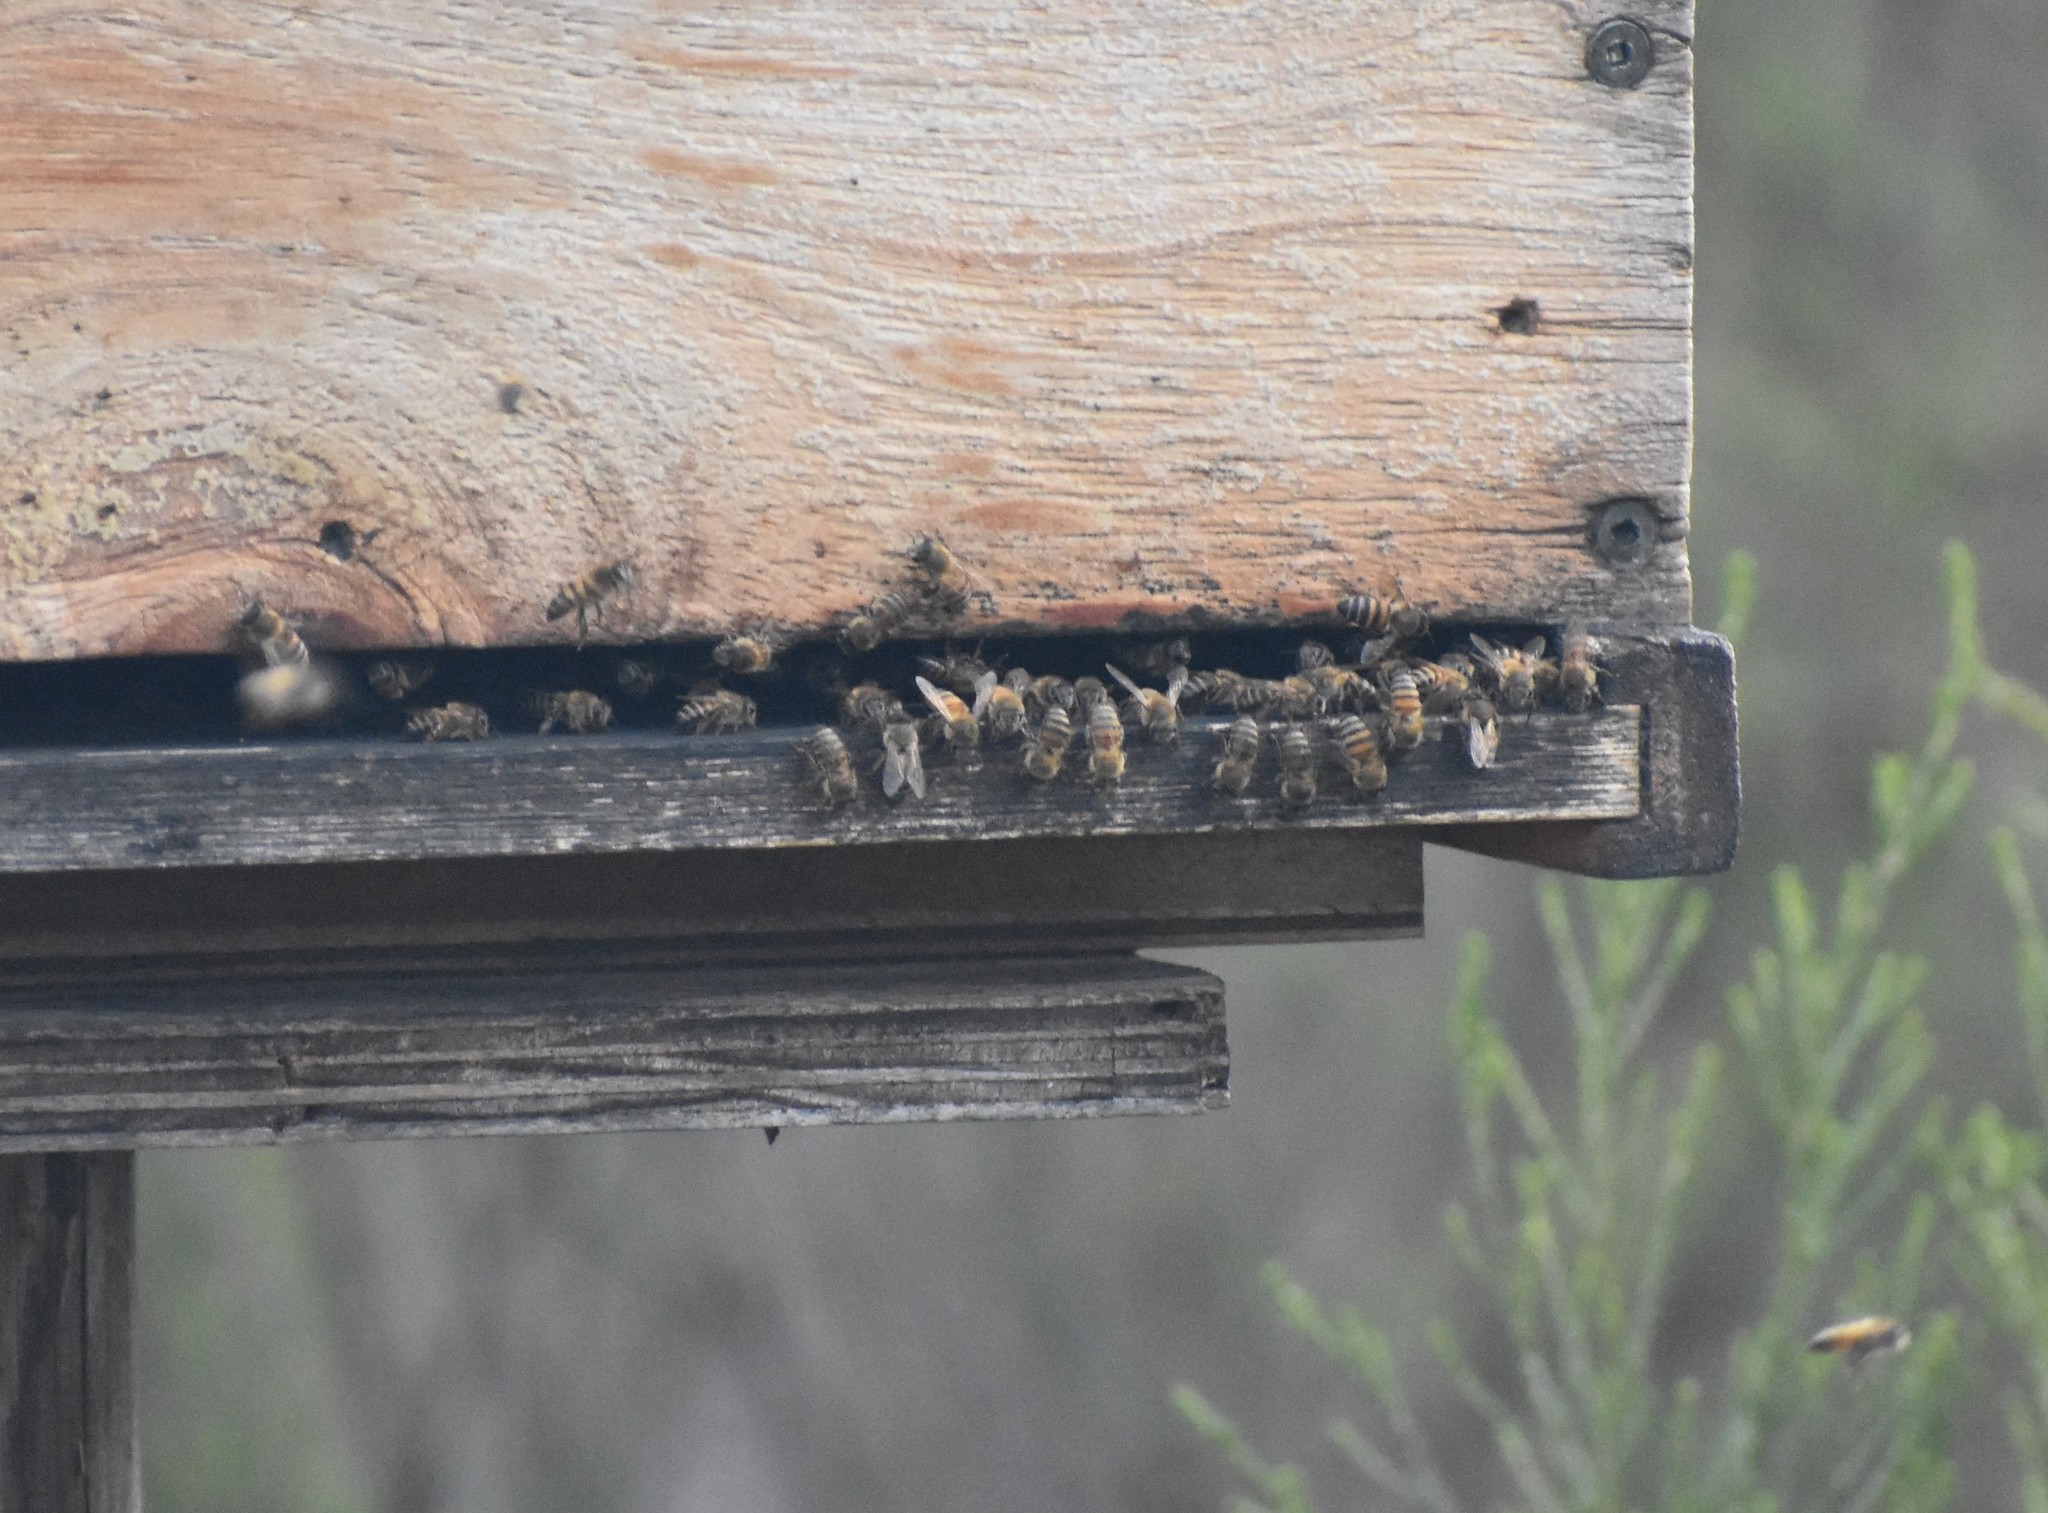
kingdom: Animalia
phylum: Arthropoda
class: Insecta
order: Hymenoptera
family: Apidae
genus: Apis
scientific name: Apis mellifera
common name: Honey bee
